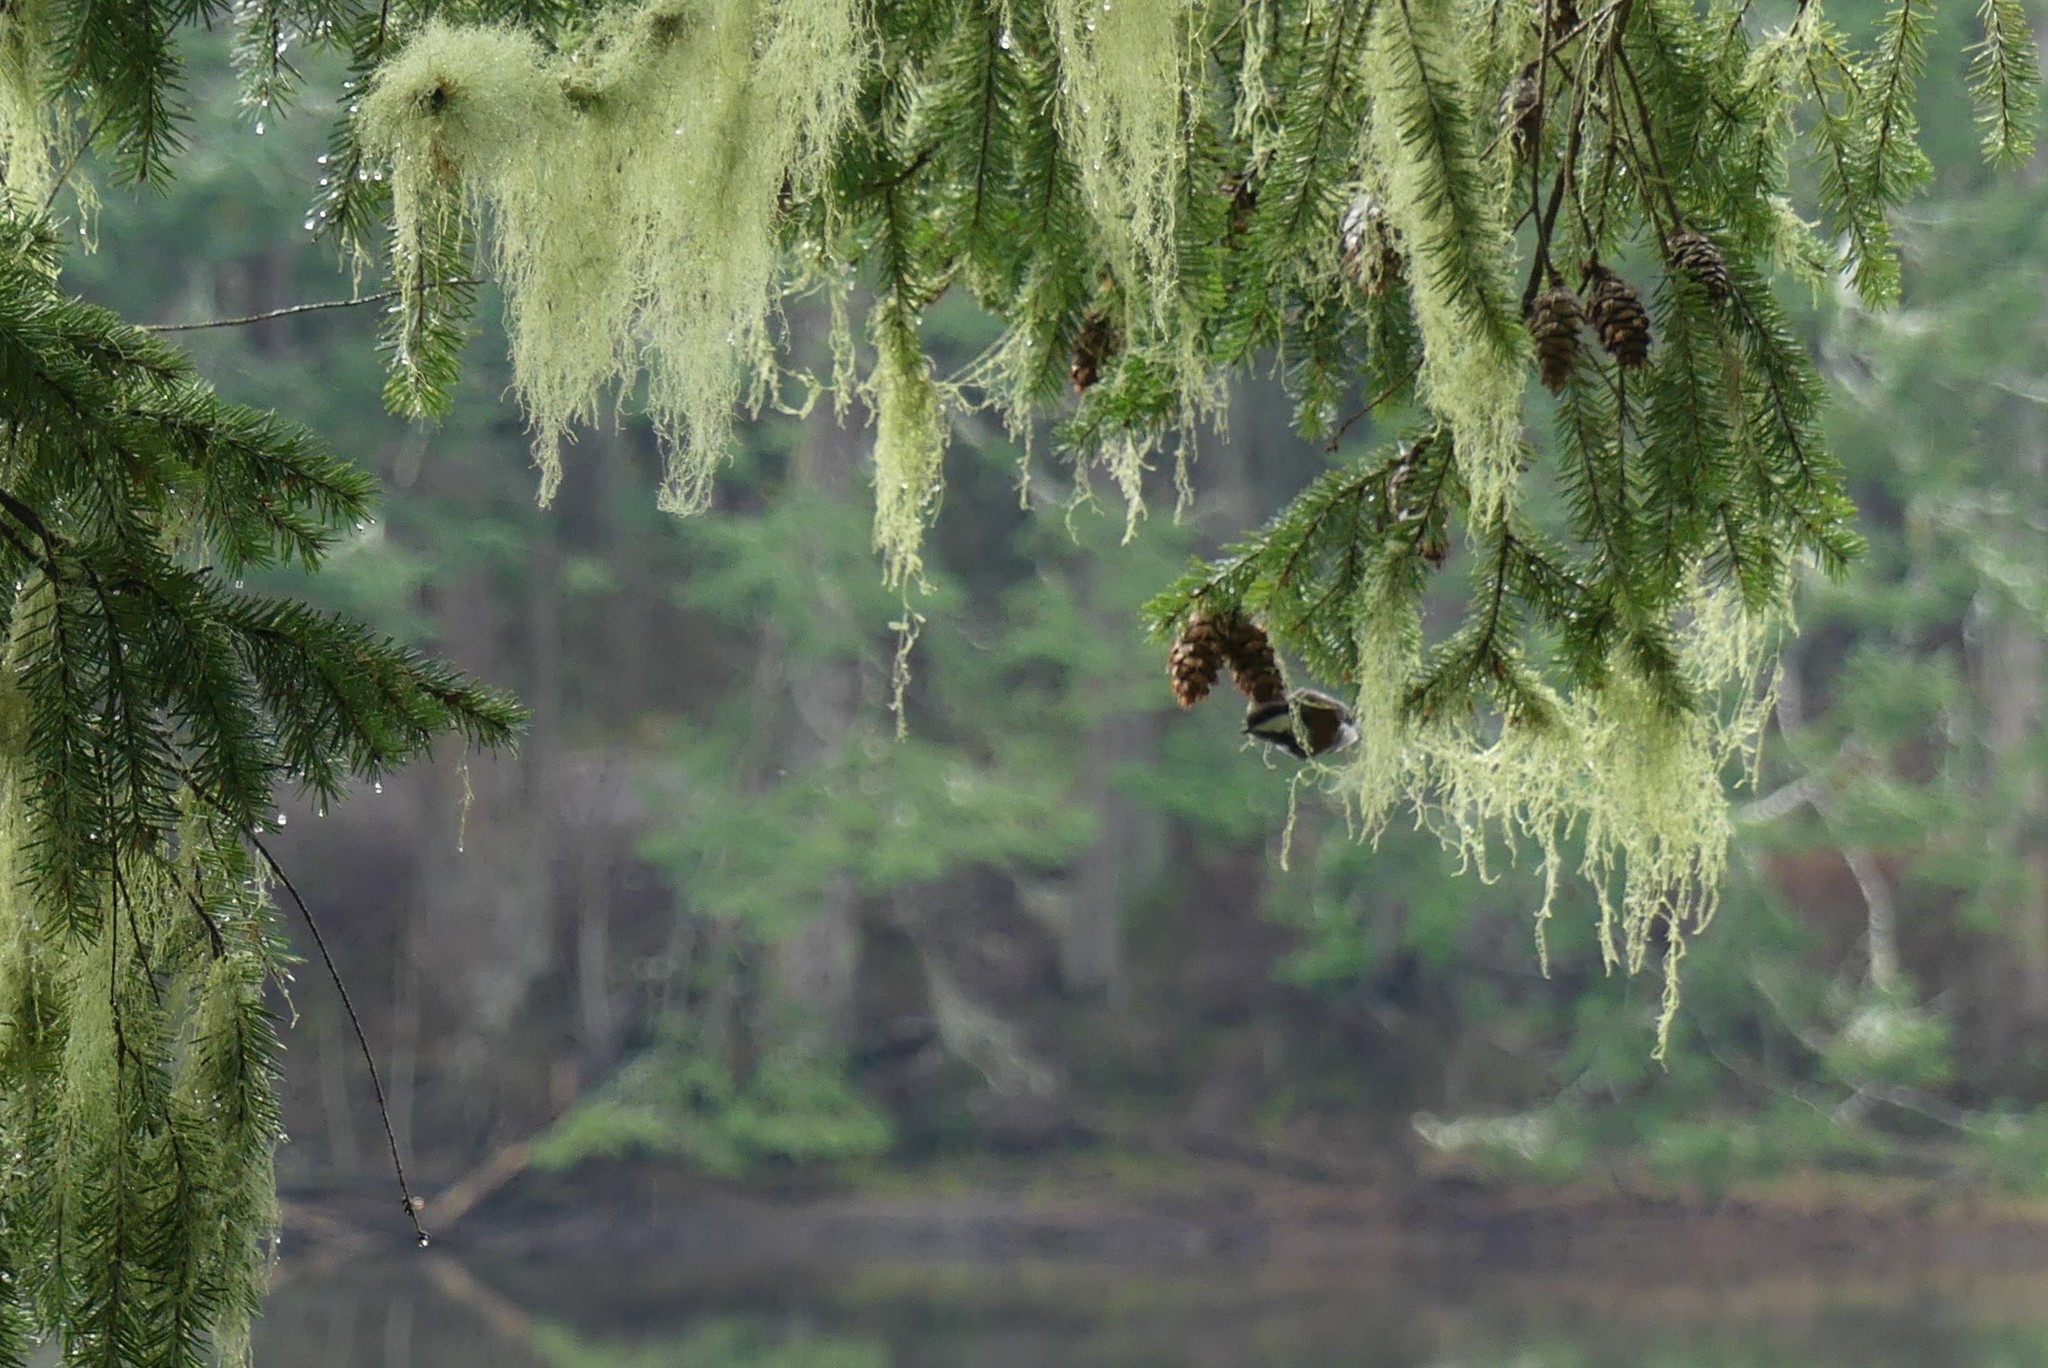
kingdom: Animalia
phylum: Chordata
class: Aves
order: Passeriformes
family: Paridae
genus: Poecile
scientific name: Poecile rufescens
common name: Chestnut-backed chickadee
